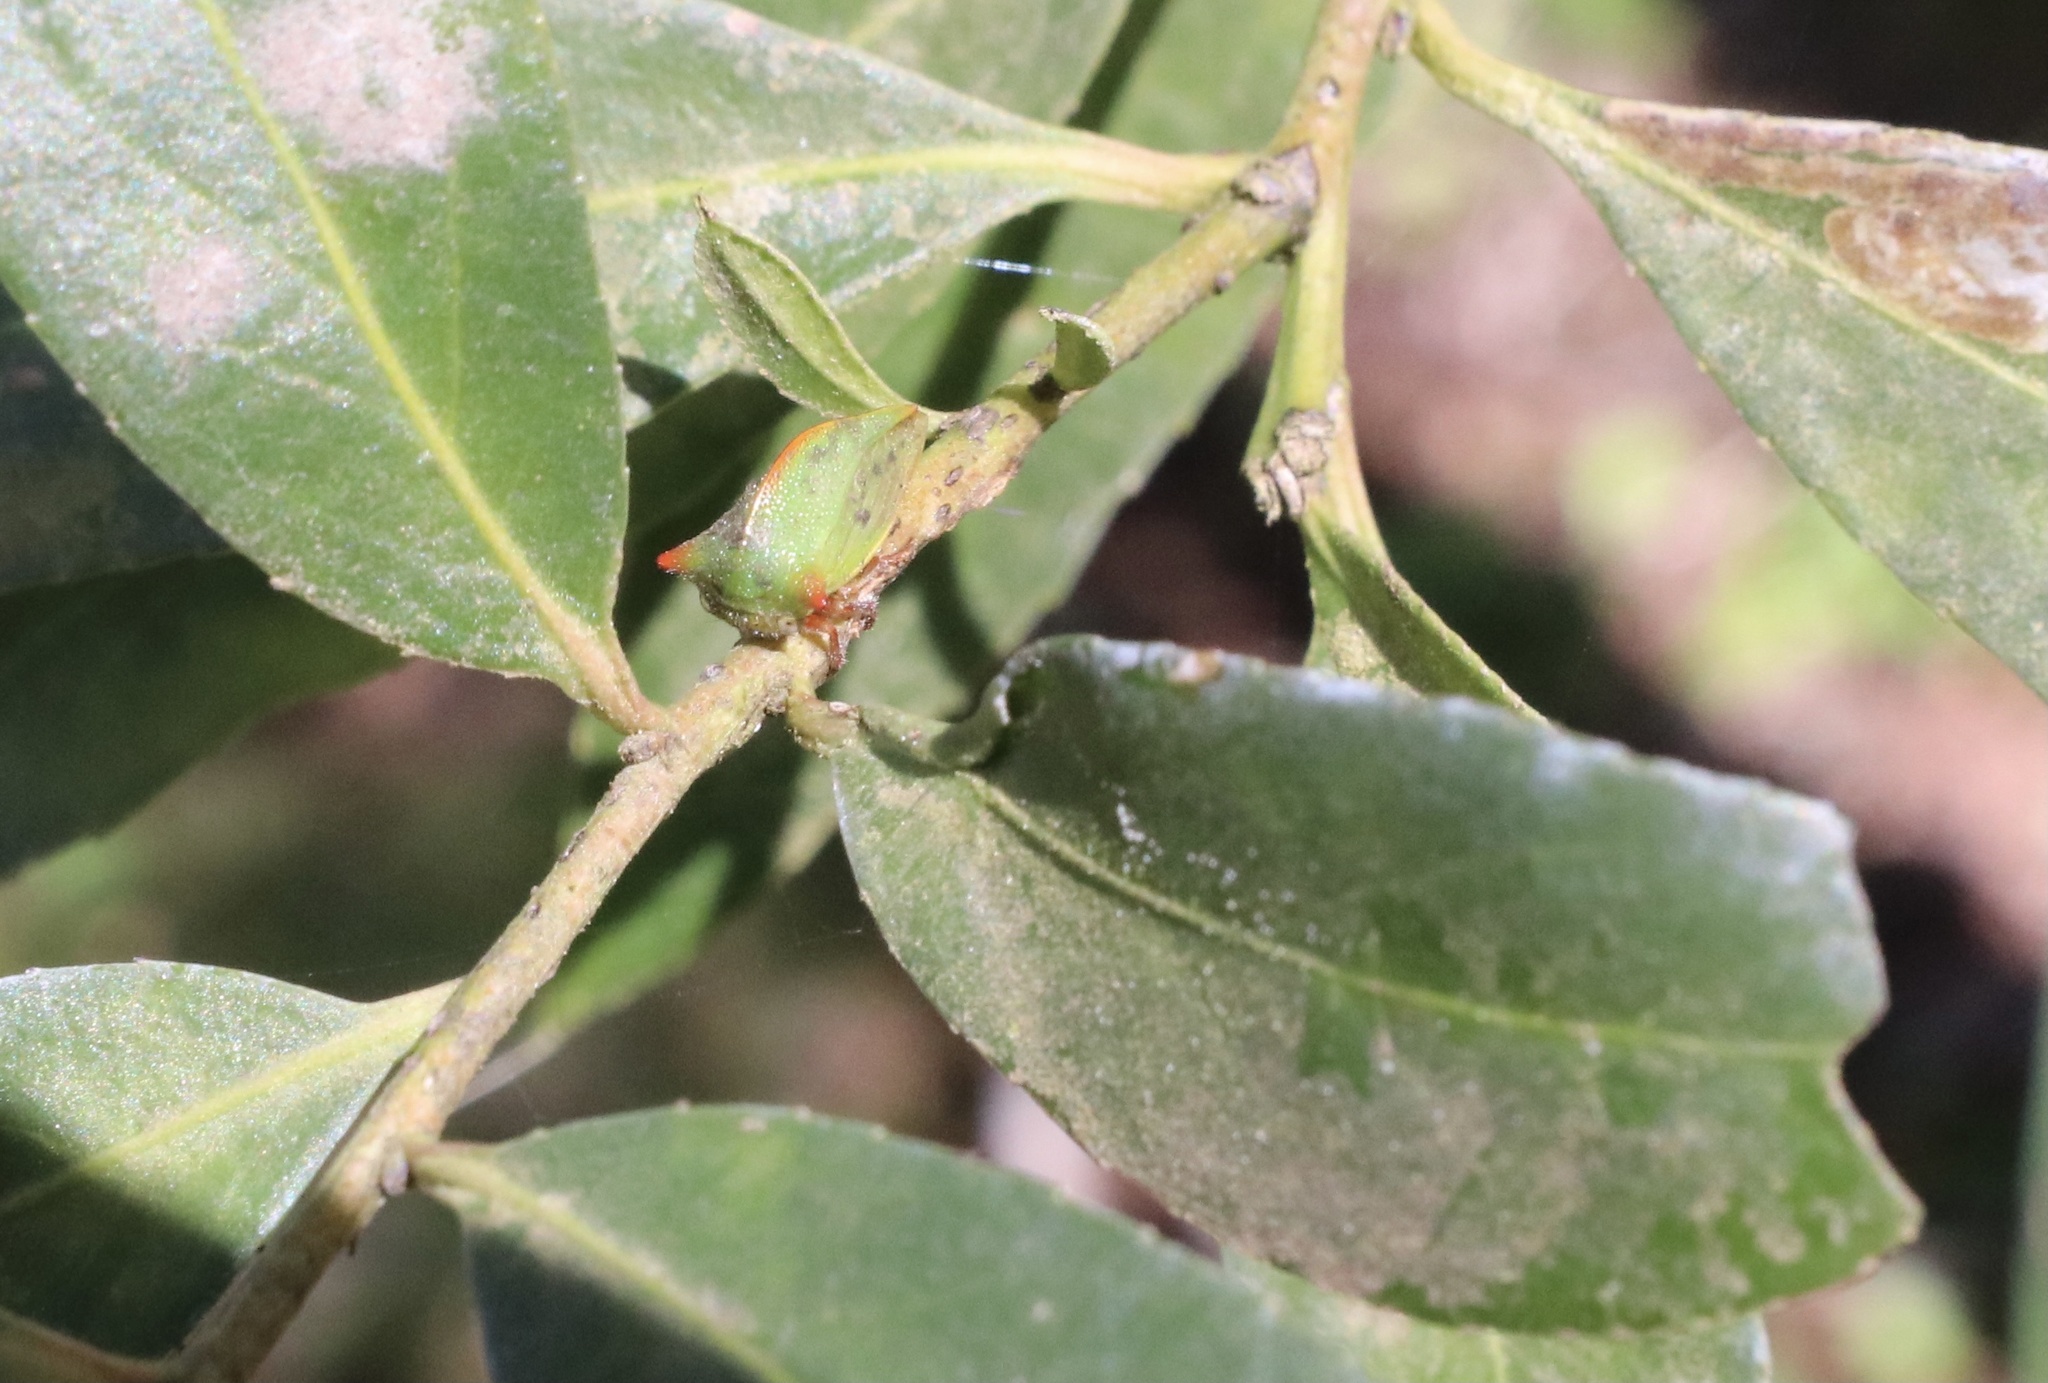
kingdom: Animalia
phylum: Arthropoda
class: Insecta
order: Hemiptera
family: Membracidae
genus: Alchisme
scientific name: Alchisme rubrocostata
